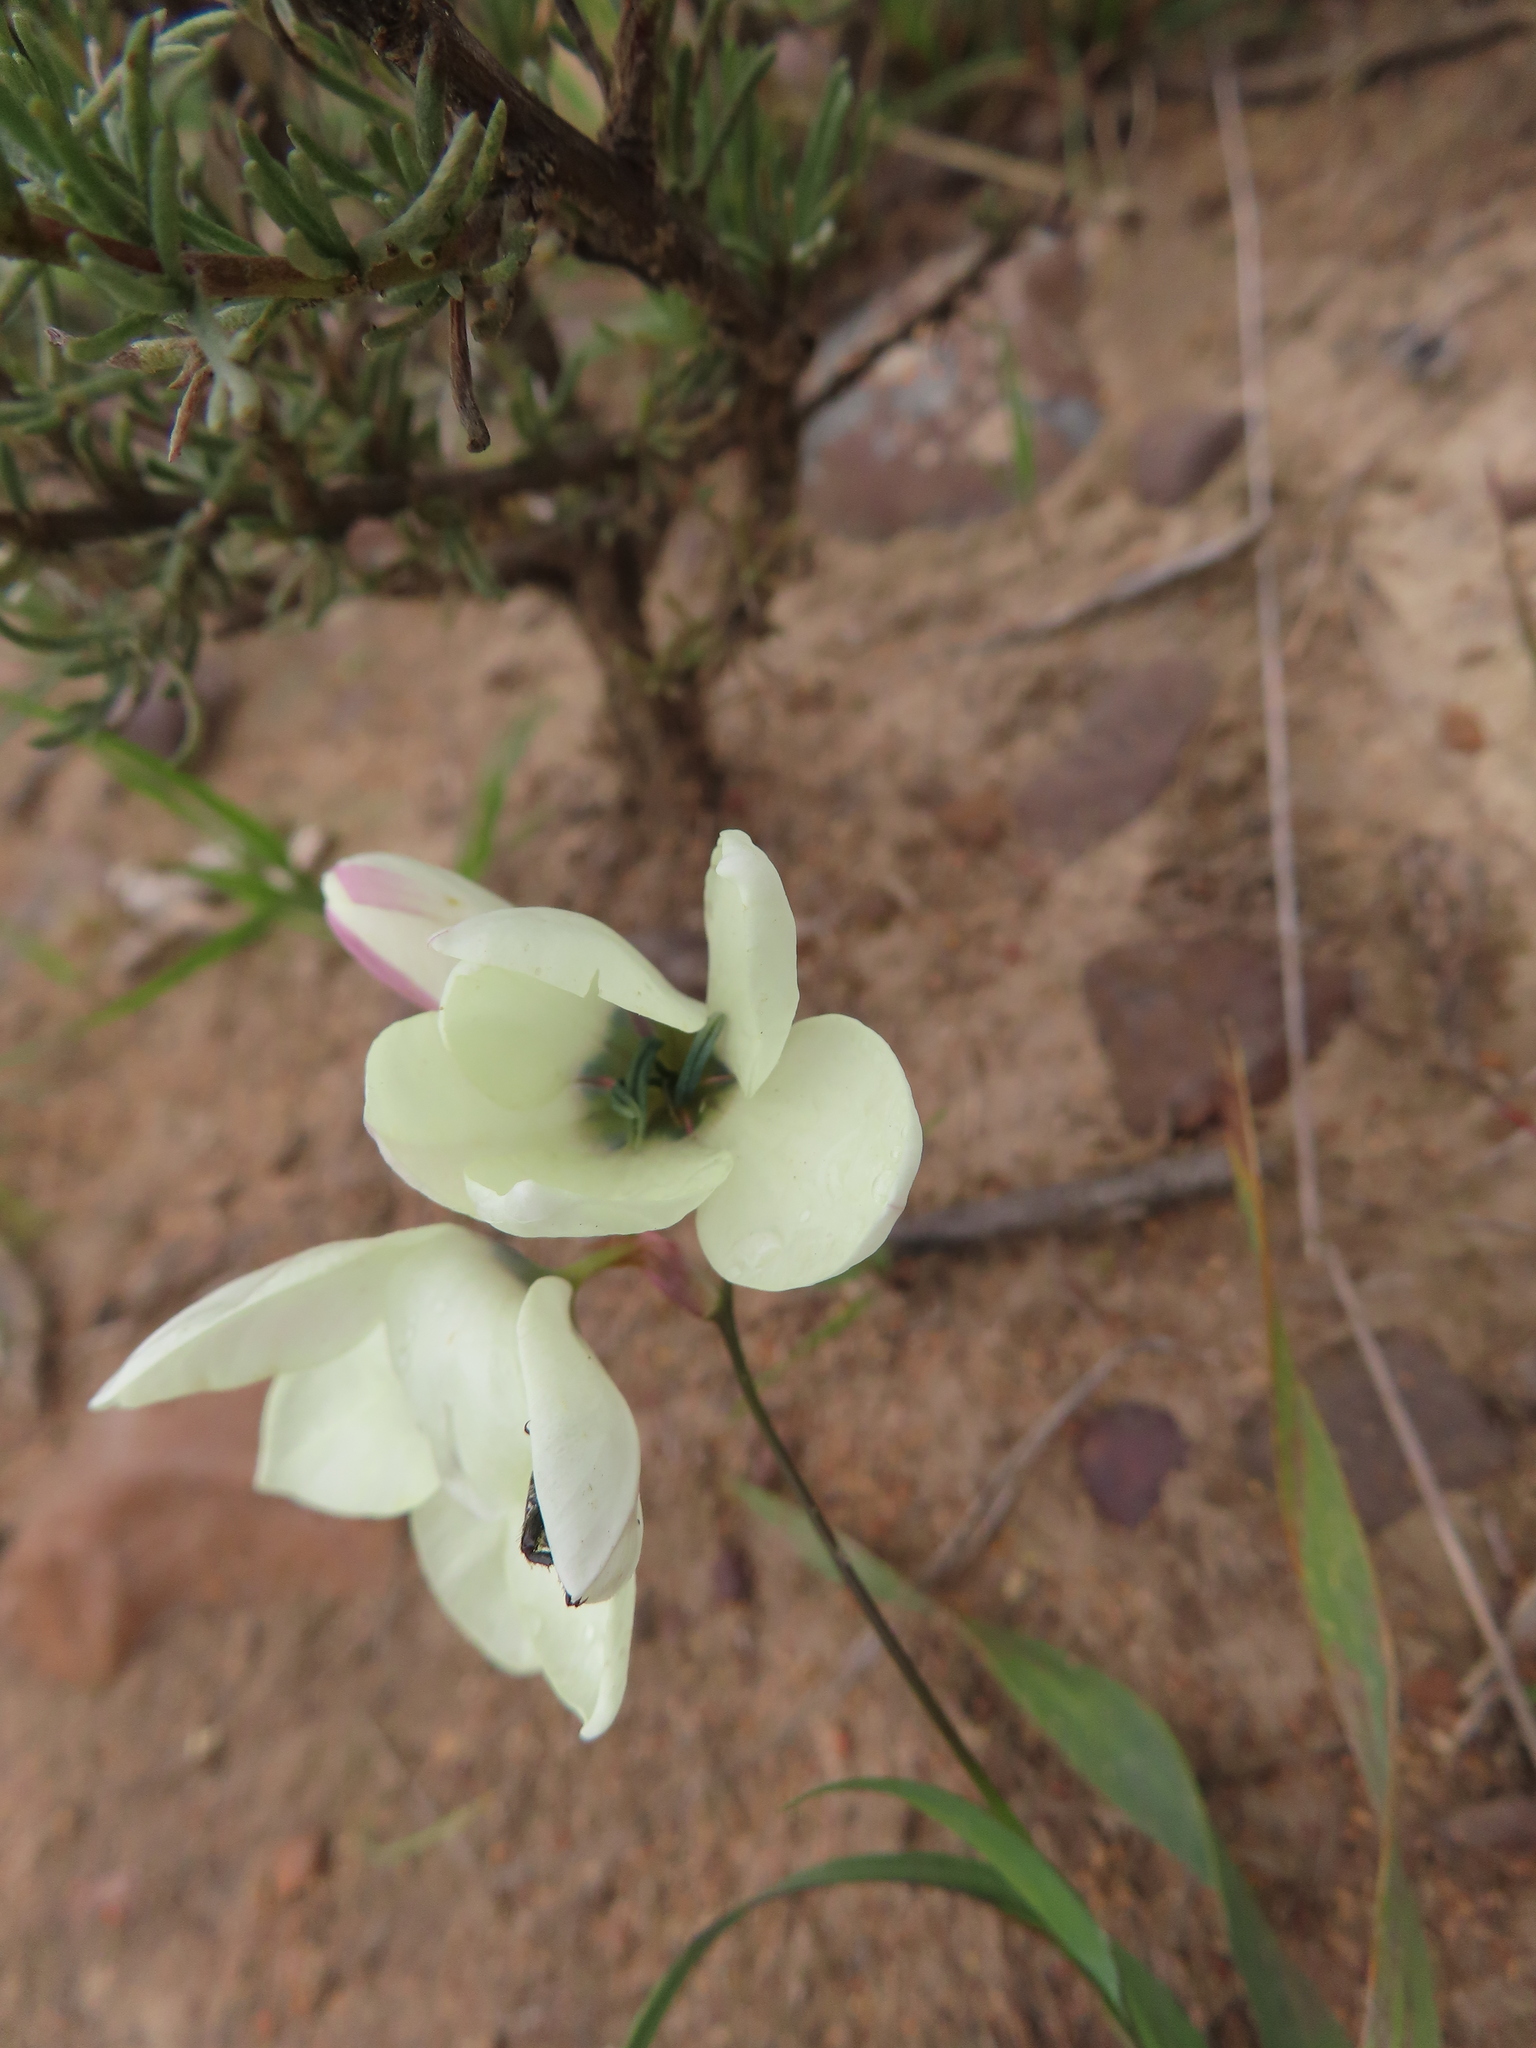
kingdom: Plantae
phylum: Tracheophyta
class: Liliopsida
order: Asparagales
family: Iridaceae
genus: Ixia
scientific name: Ixia abbreviata
